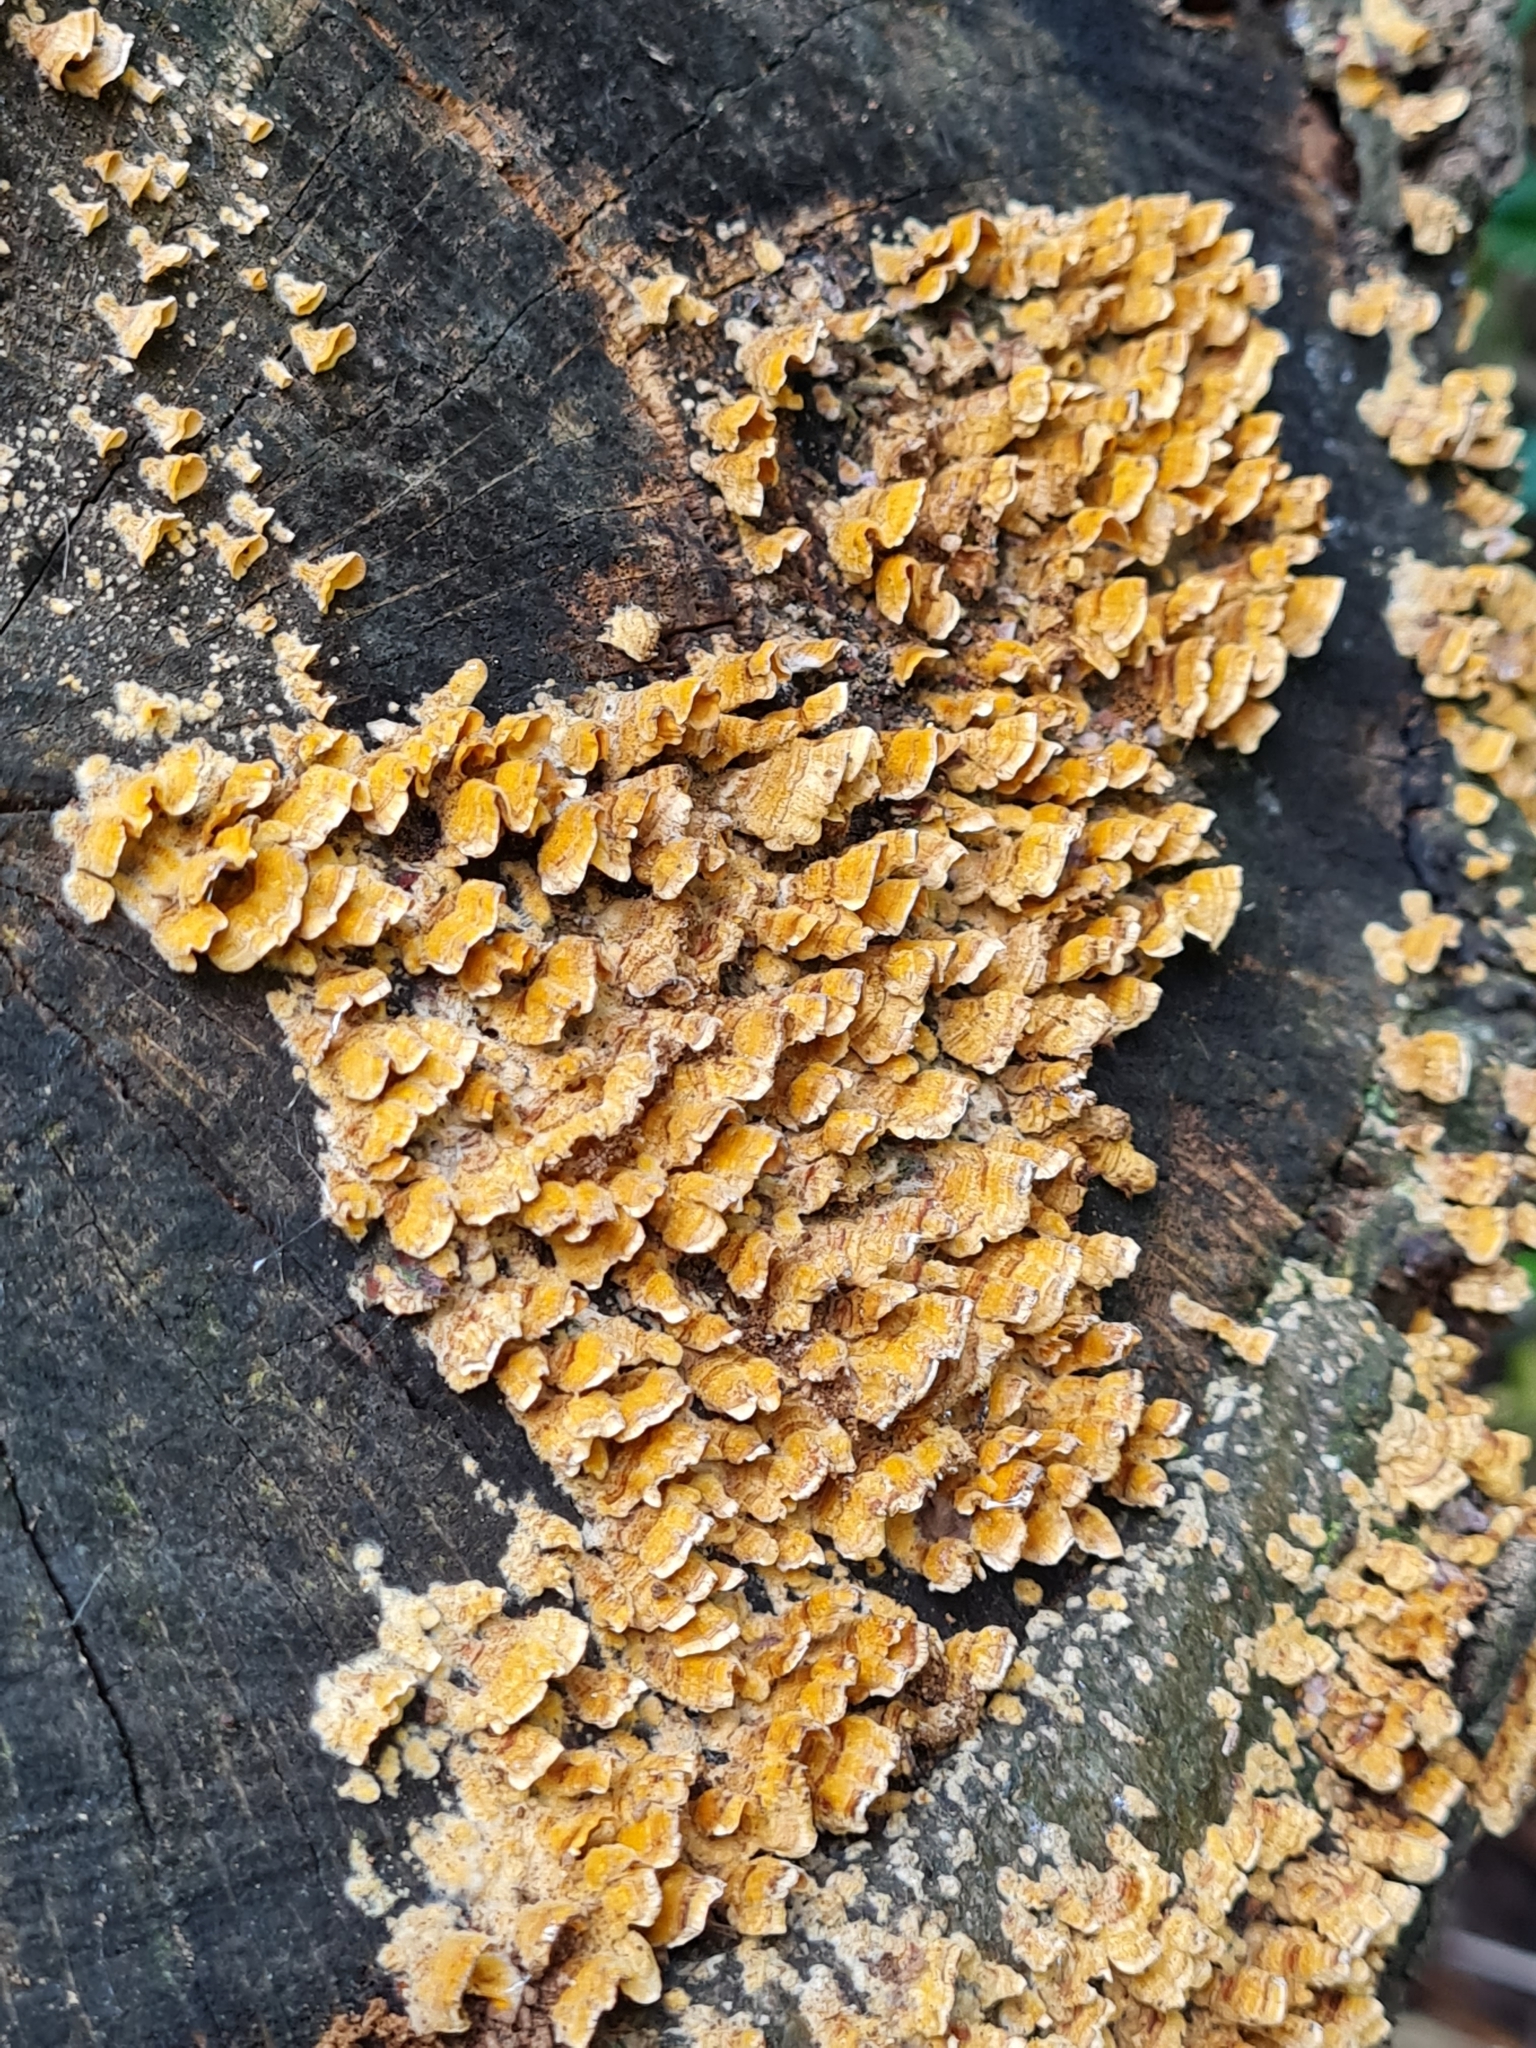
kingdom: Fungi
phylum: Basidiomycota
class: Agaricomycetes
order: Russulales
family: Stereaceae
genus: Stereum
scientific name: Stereum complicatum
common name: Crowded parchment
